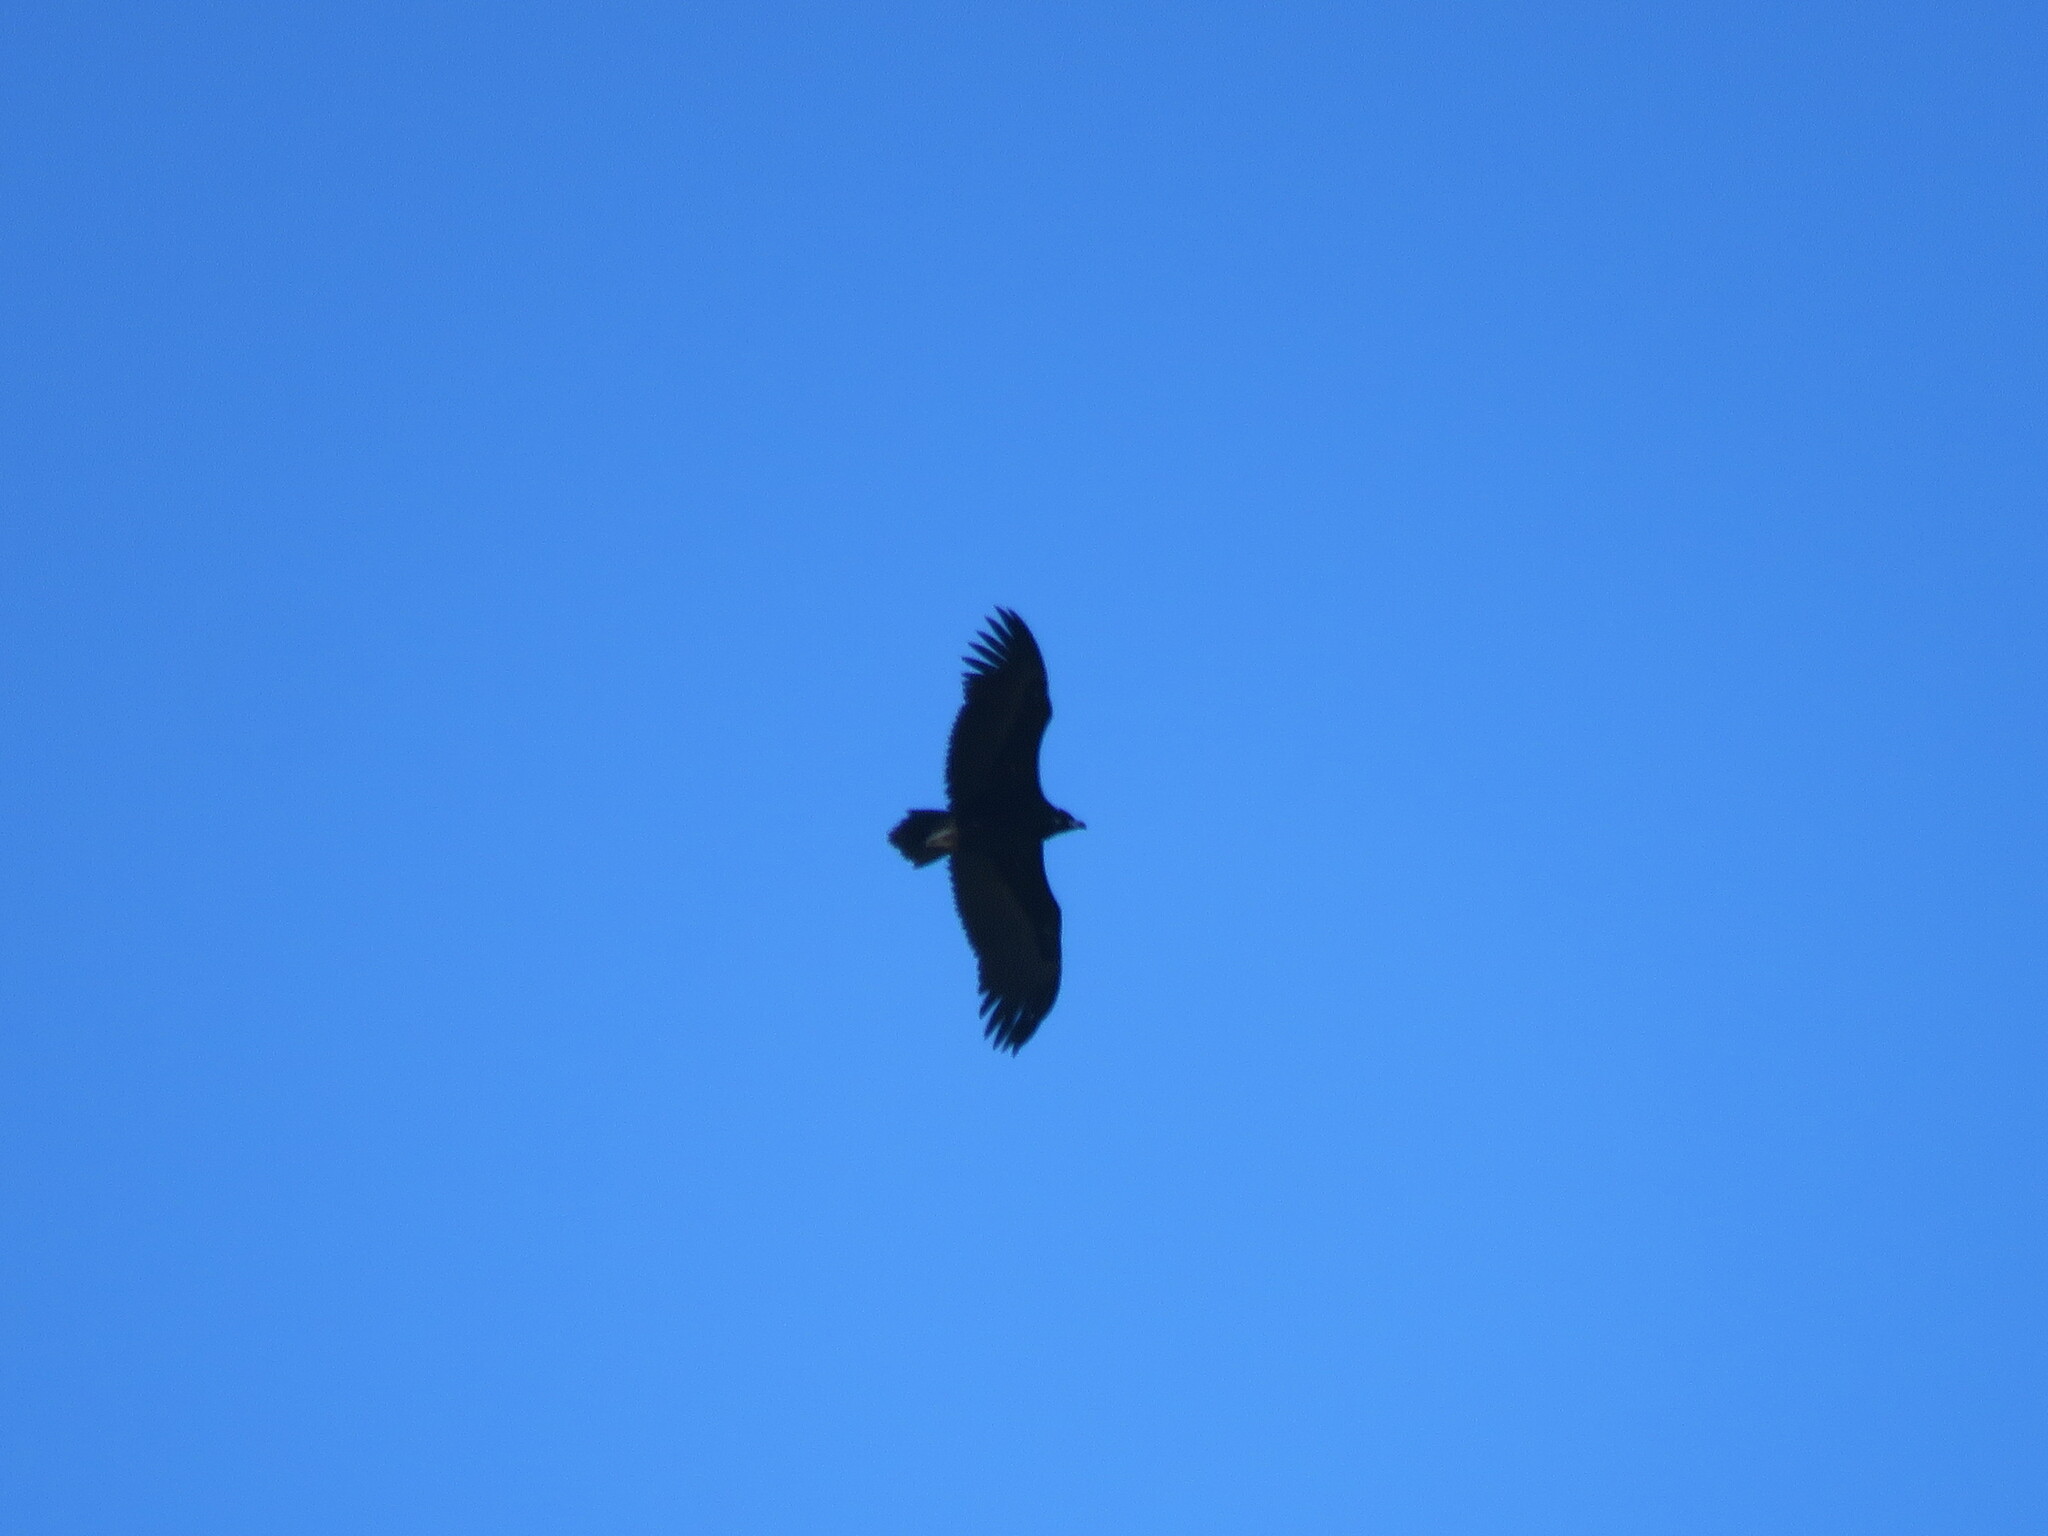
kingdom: Animalia
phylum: Chordata
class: Aves
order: Accipitriformes
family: Accipitridae
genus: Aegypius
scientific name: Aegypius monachus
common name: Cinereous vulture
